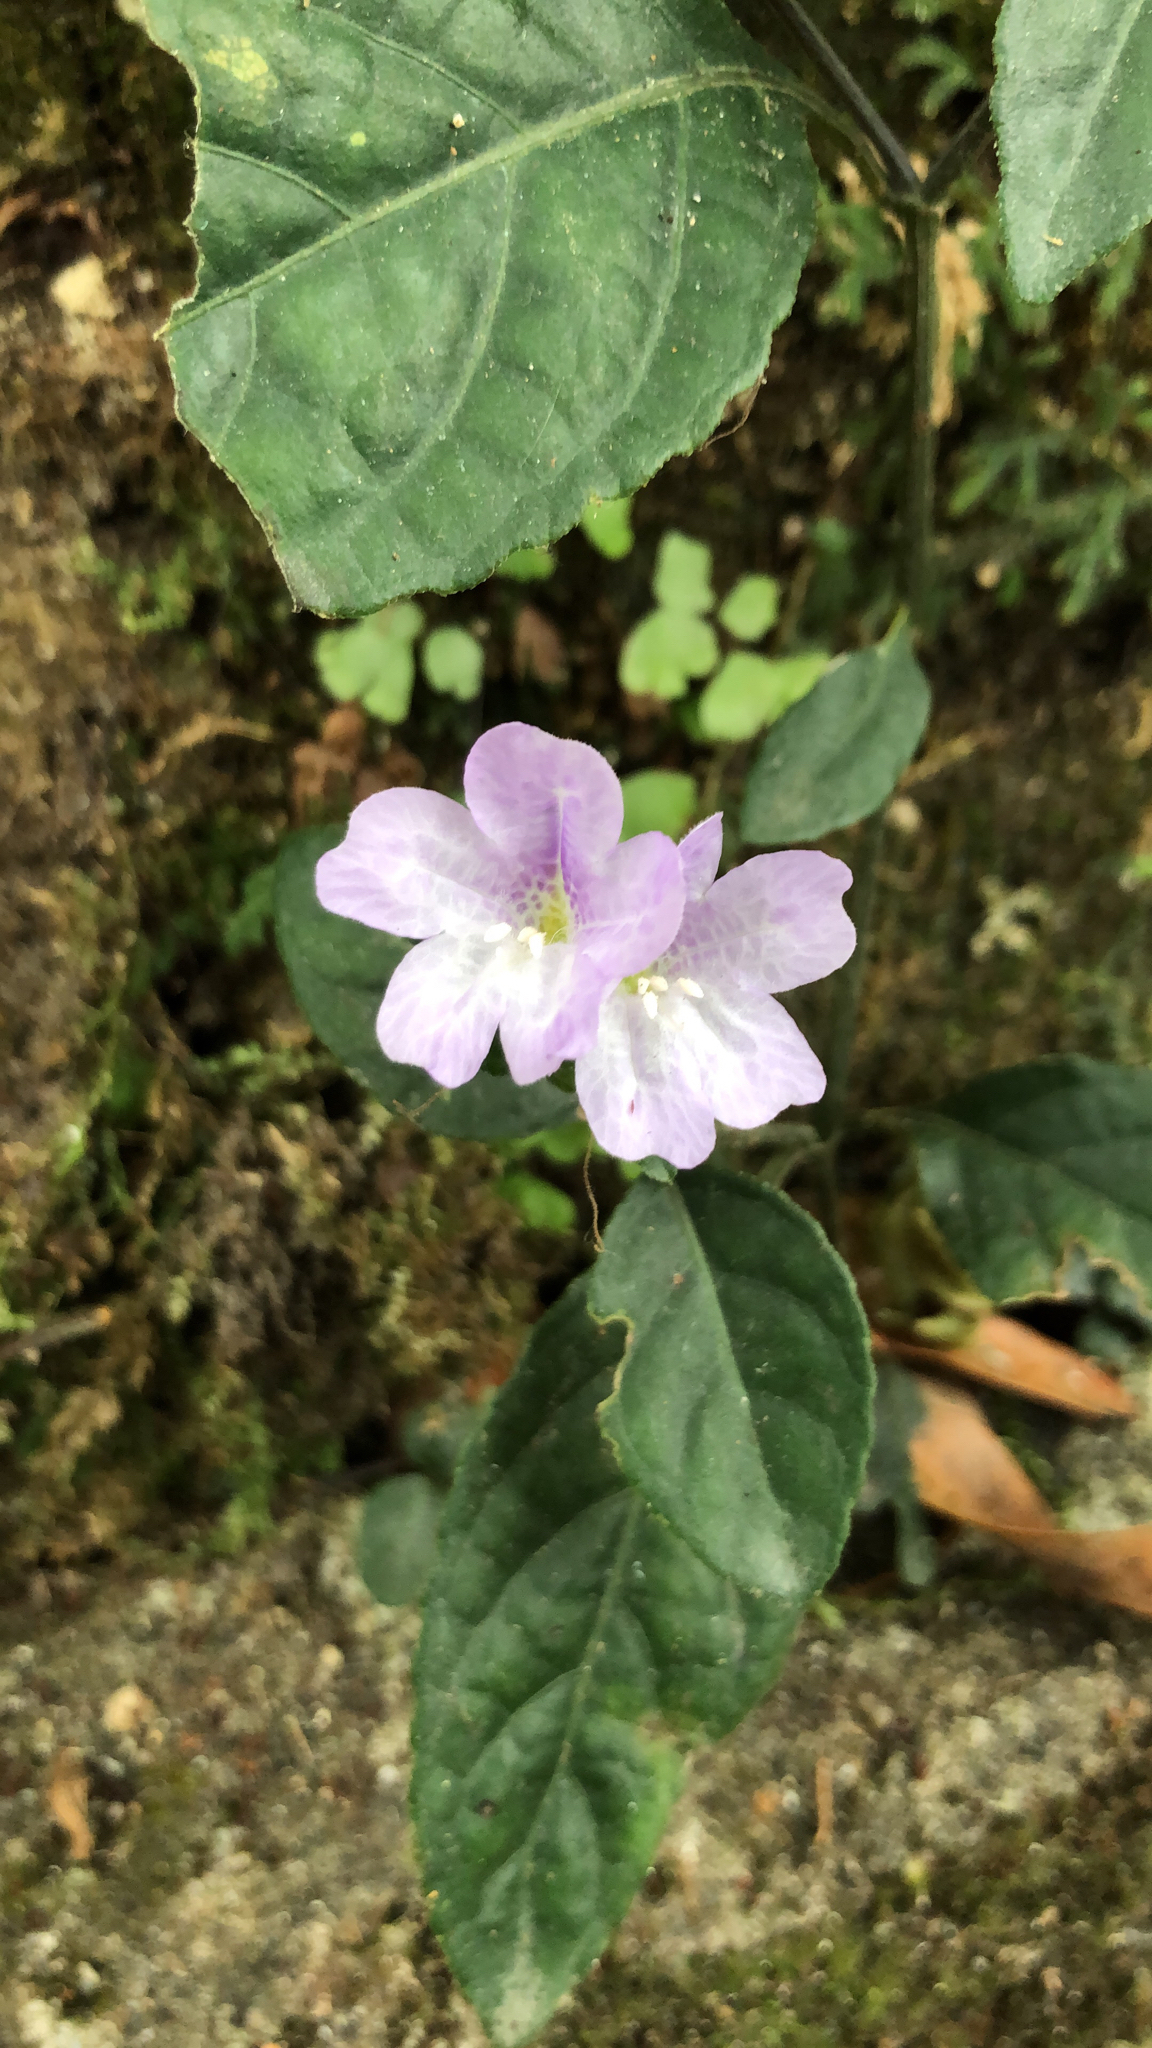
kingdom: Plantae
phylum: Tracheophyta
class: Magnoliopsida
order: Lamiales
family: Acanthaceae
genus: Strobilanthes
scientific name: Strobilanthes tetrasperma
